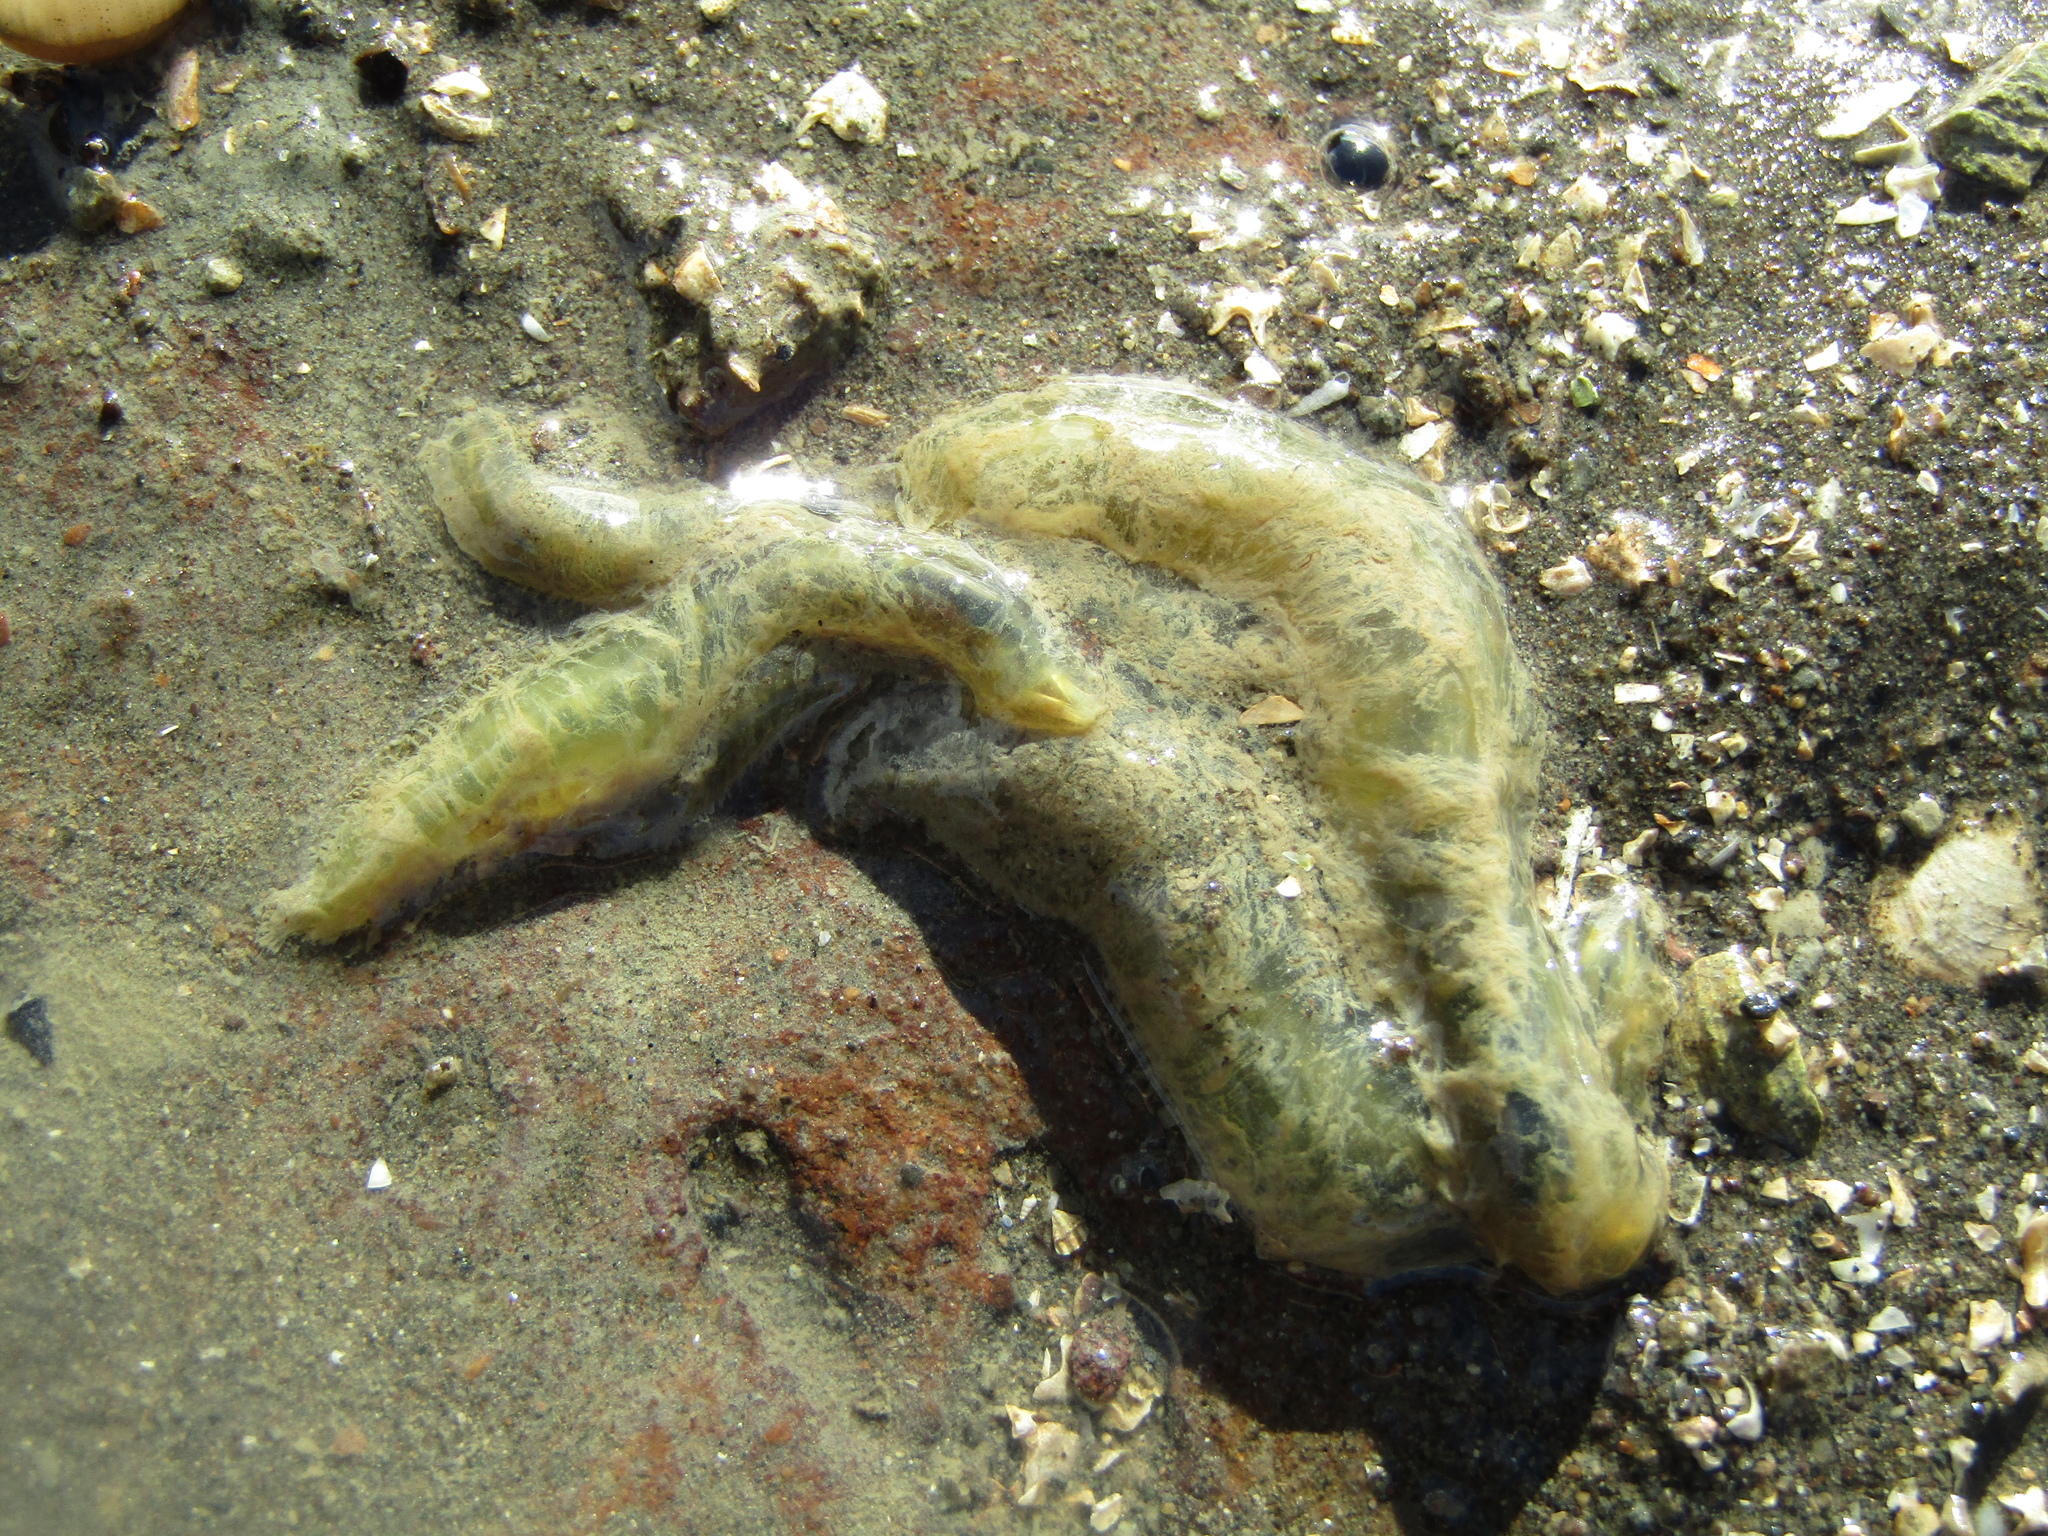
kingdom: Animalia
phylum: Annelida
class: Polychaeta
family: Flabelligeridae
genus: Flabelligera
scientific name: Flabelligera bicolor
